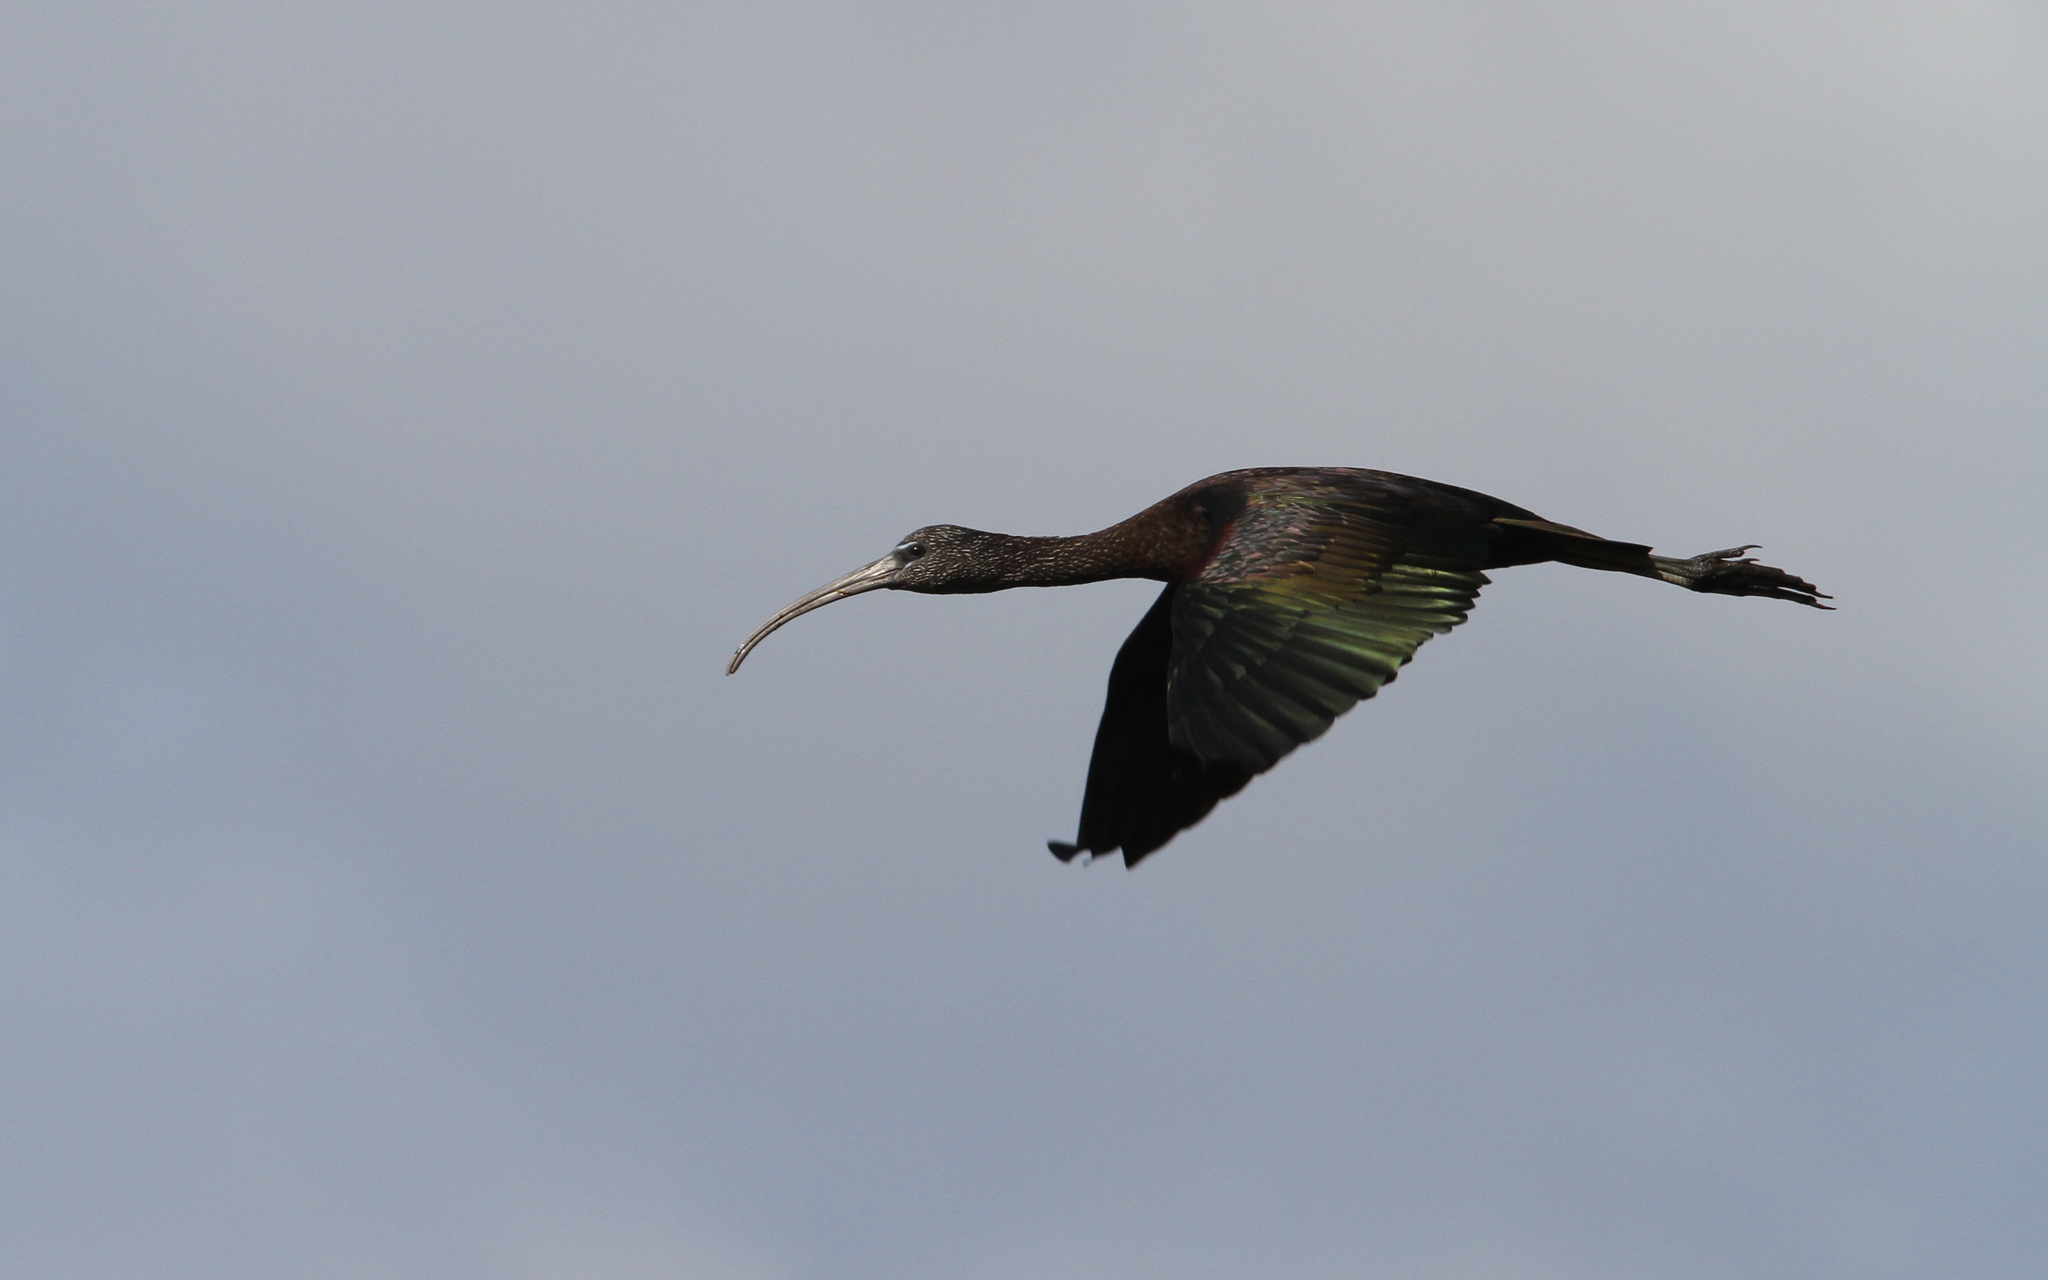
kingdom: Animalia
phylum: Chordata
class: Aves
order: Pelecaniformes
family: Threskiornithidae
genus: Plegadis
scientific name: Plegadis falcinellus
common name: Glossy ibis
